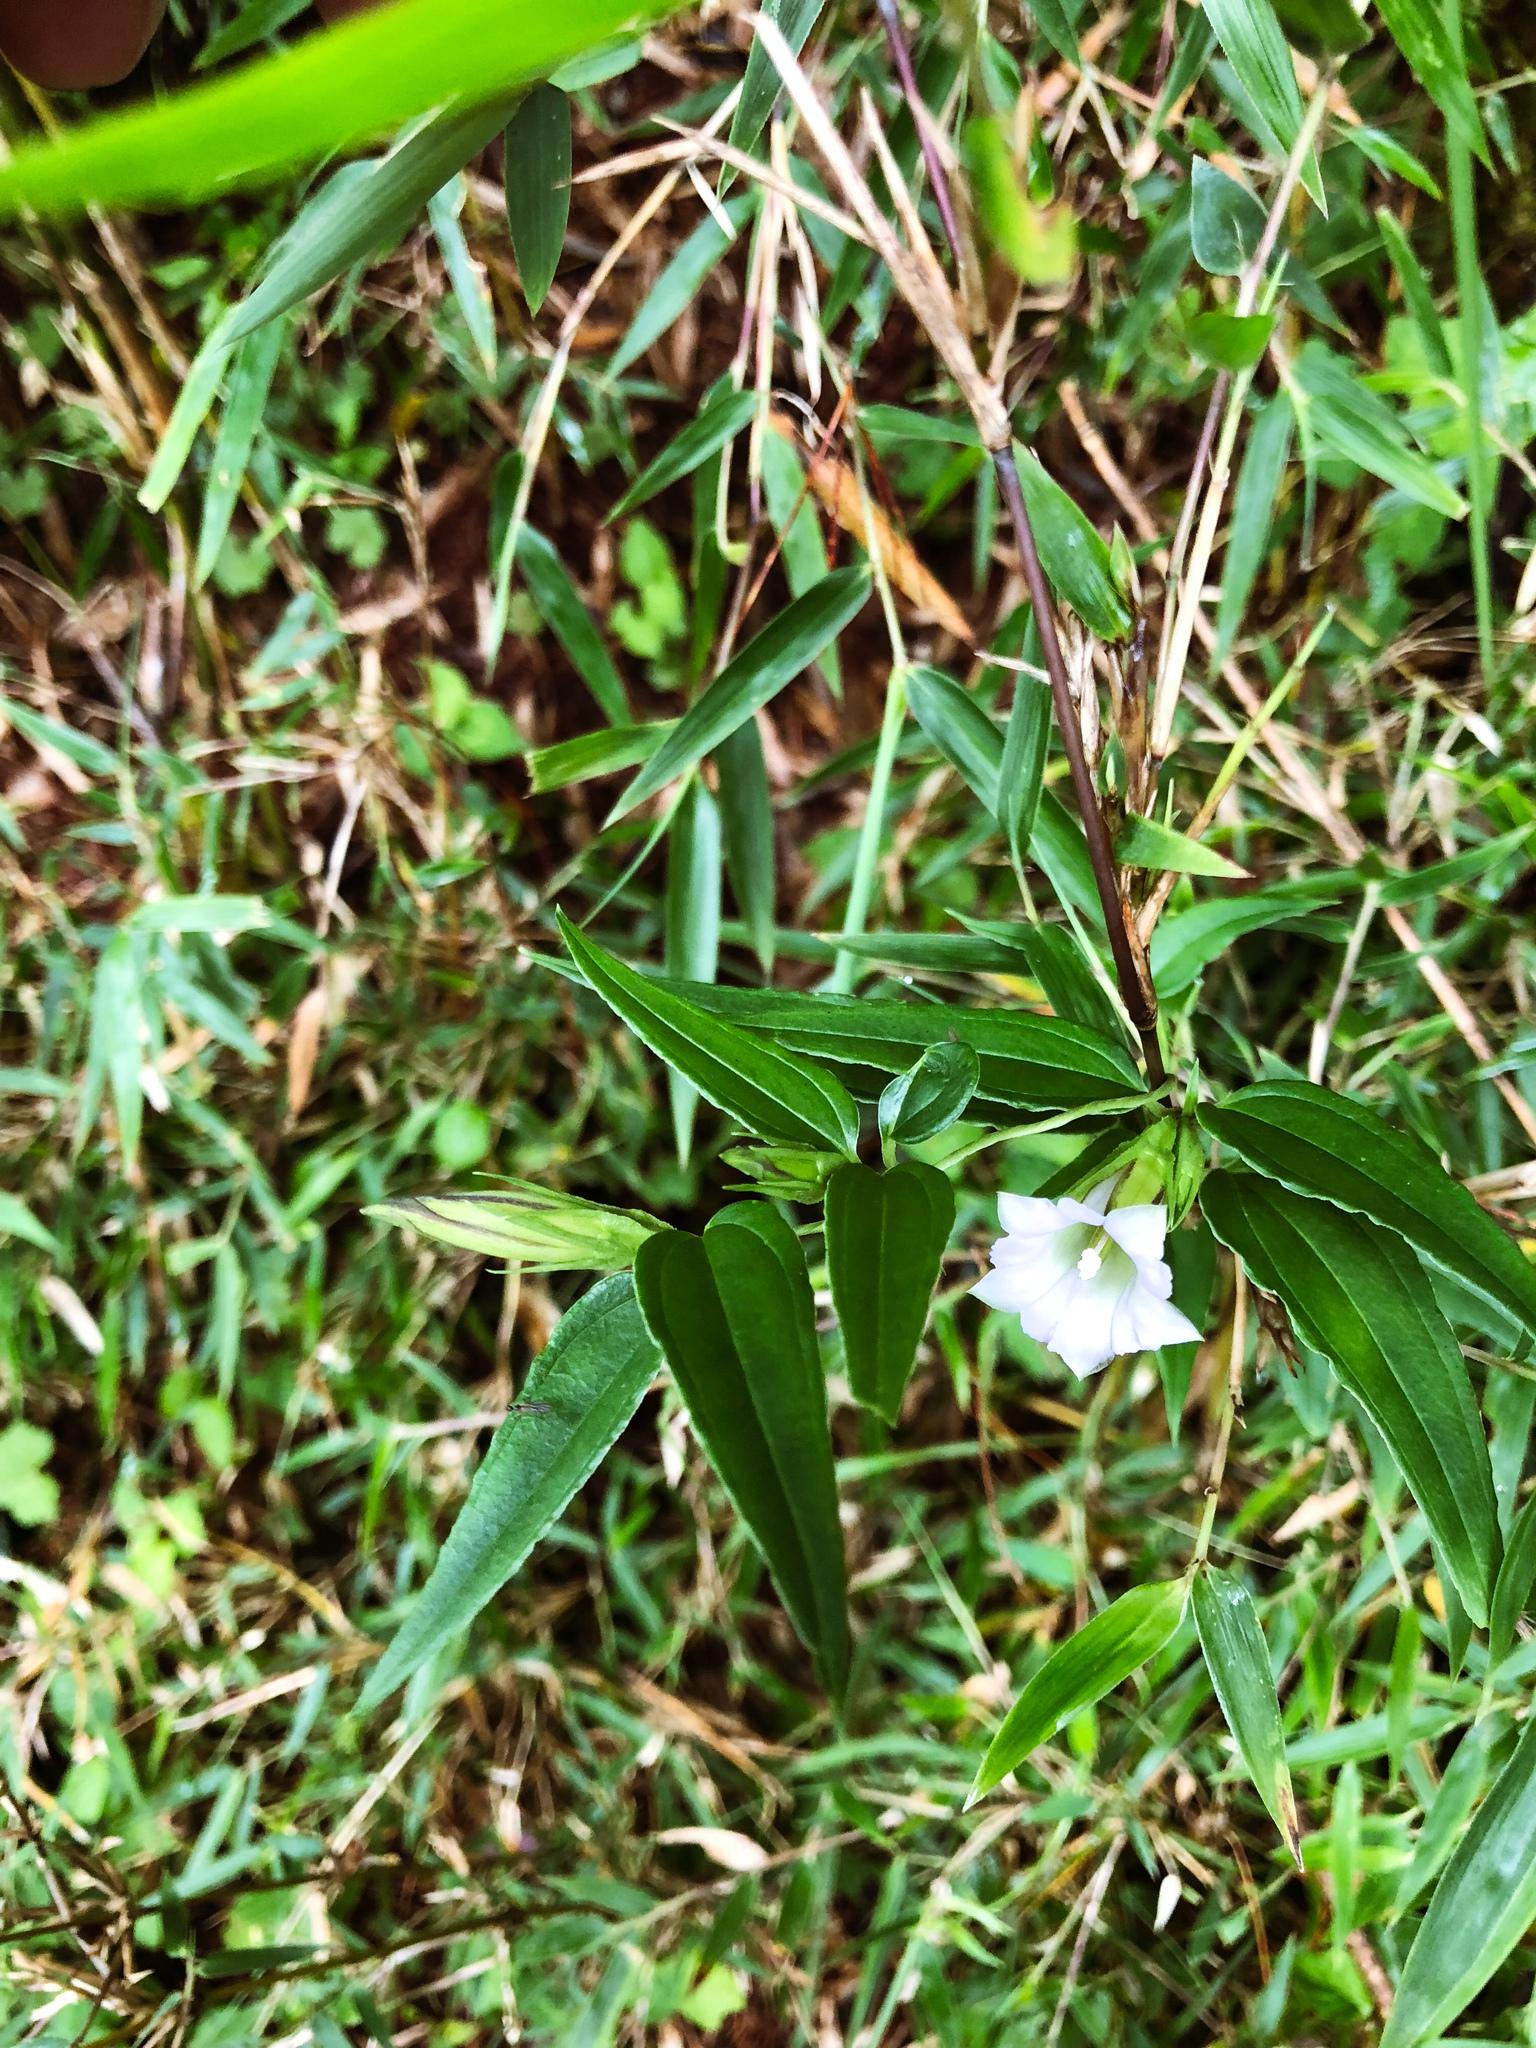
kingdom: Plantae
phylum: Tracheophyta
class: Magnoliopsida
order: Gentianales
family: Gentianaceae
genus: Tripterospermum
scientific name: Tripterospermum lanceolatum
